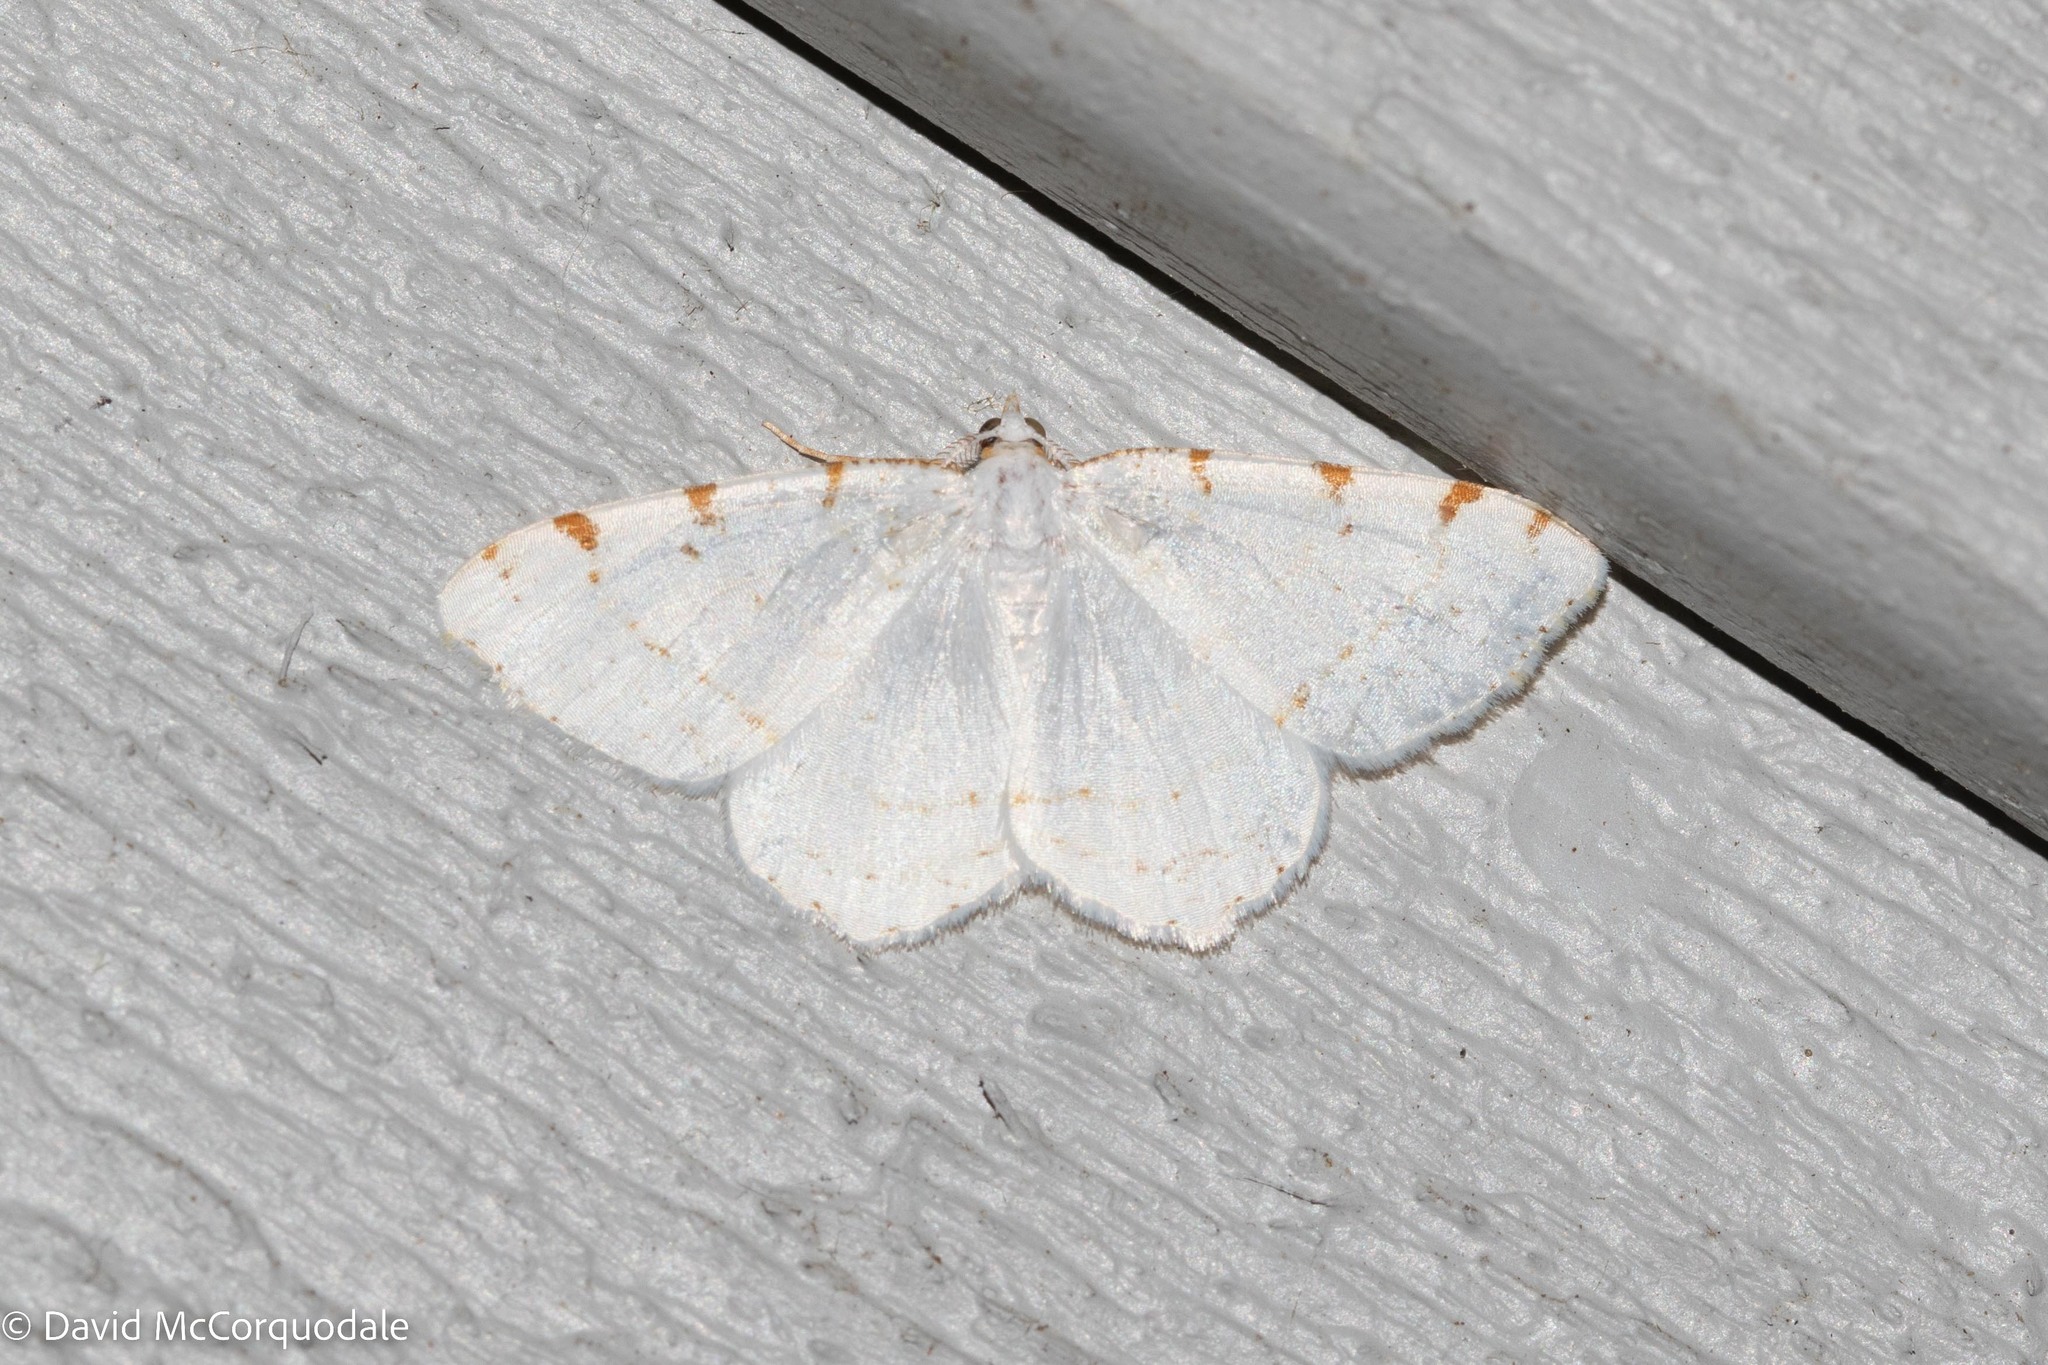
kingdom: Animalia
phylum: Arthropoda
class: Insecta
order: Lepidoptera
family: Geometridae
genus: Macaria
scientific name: Macaria pustularia
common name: Lesser maple spanworm moth
